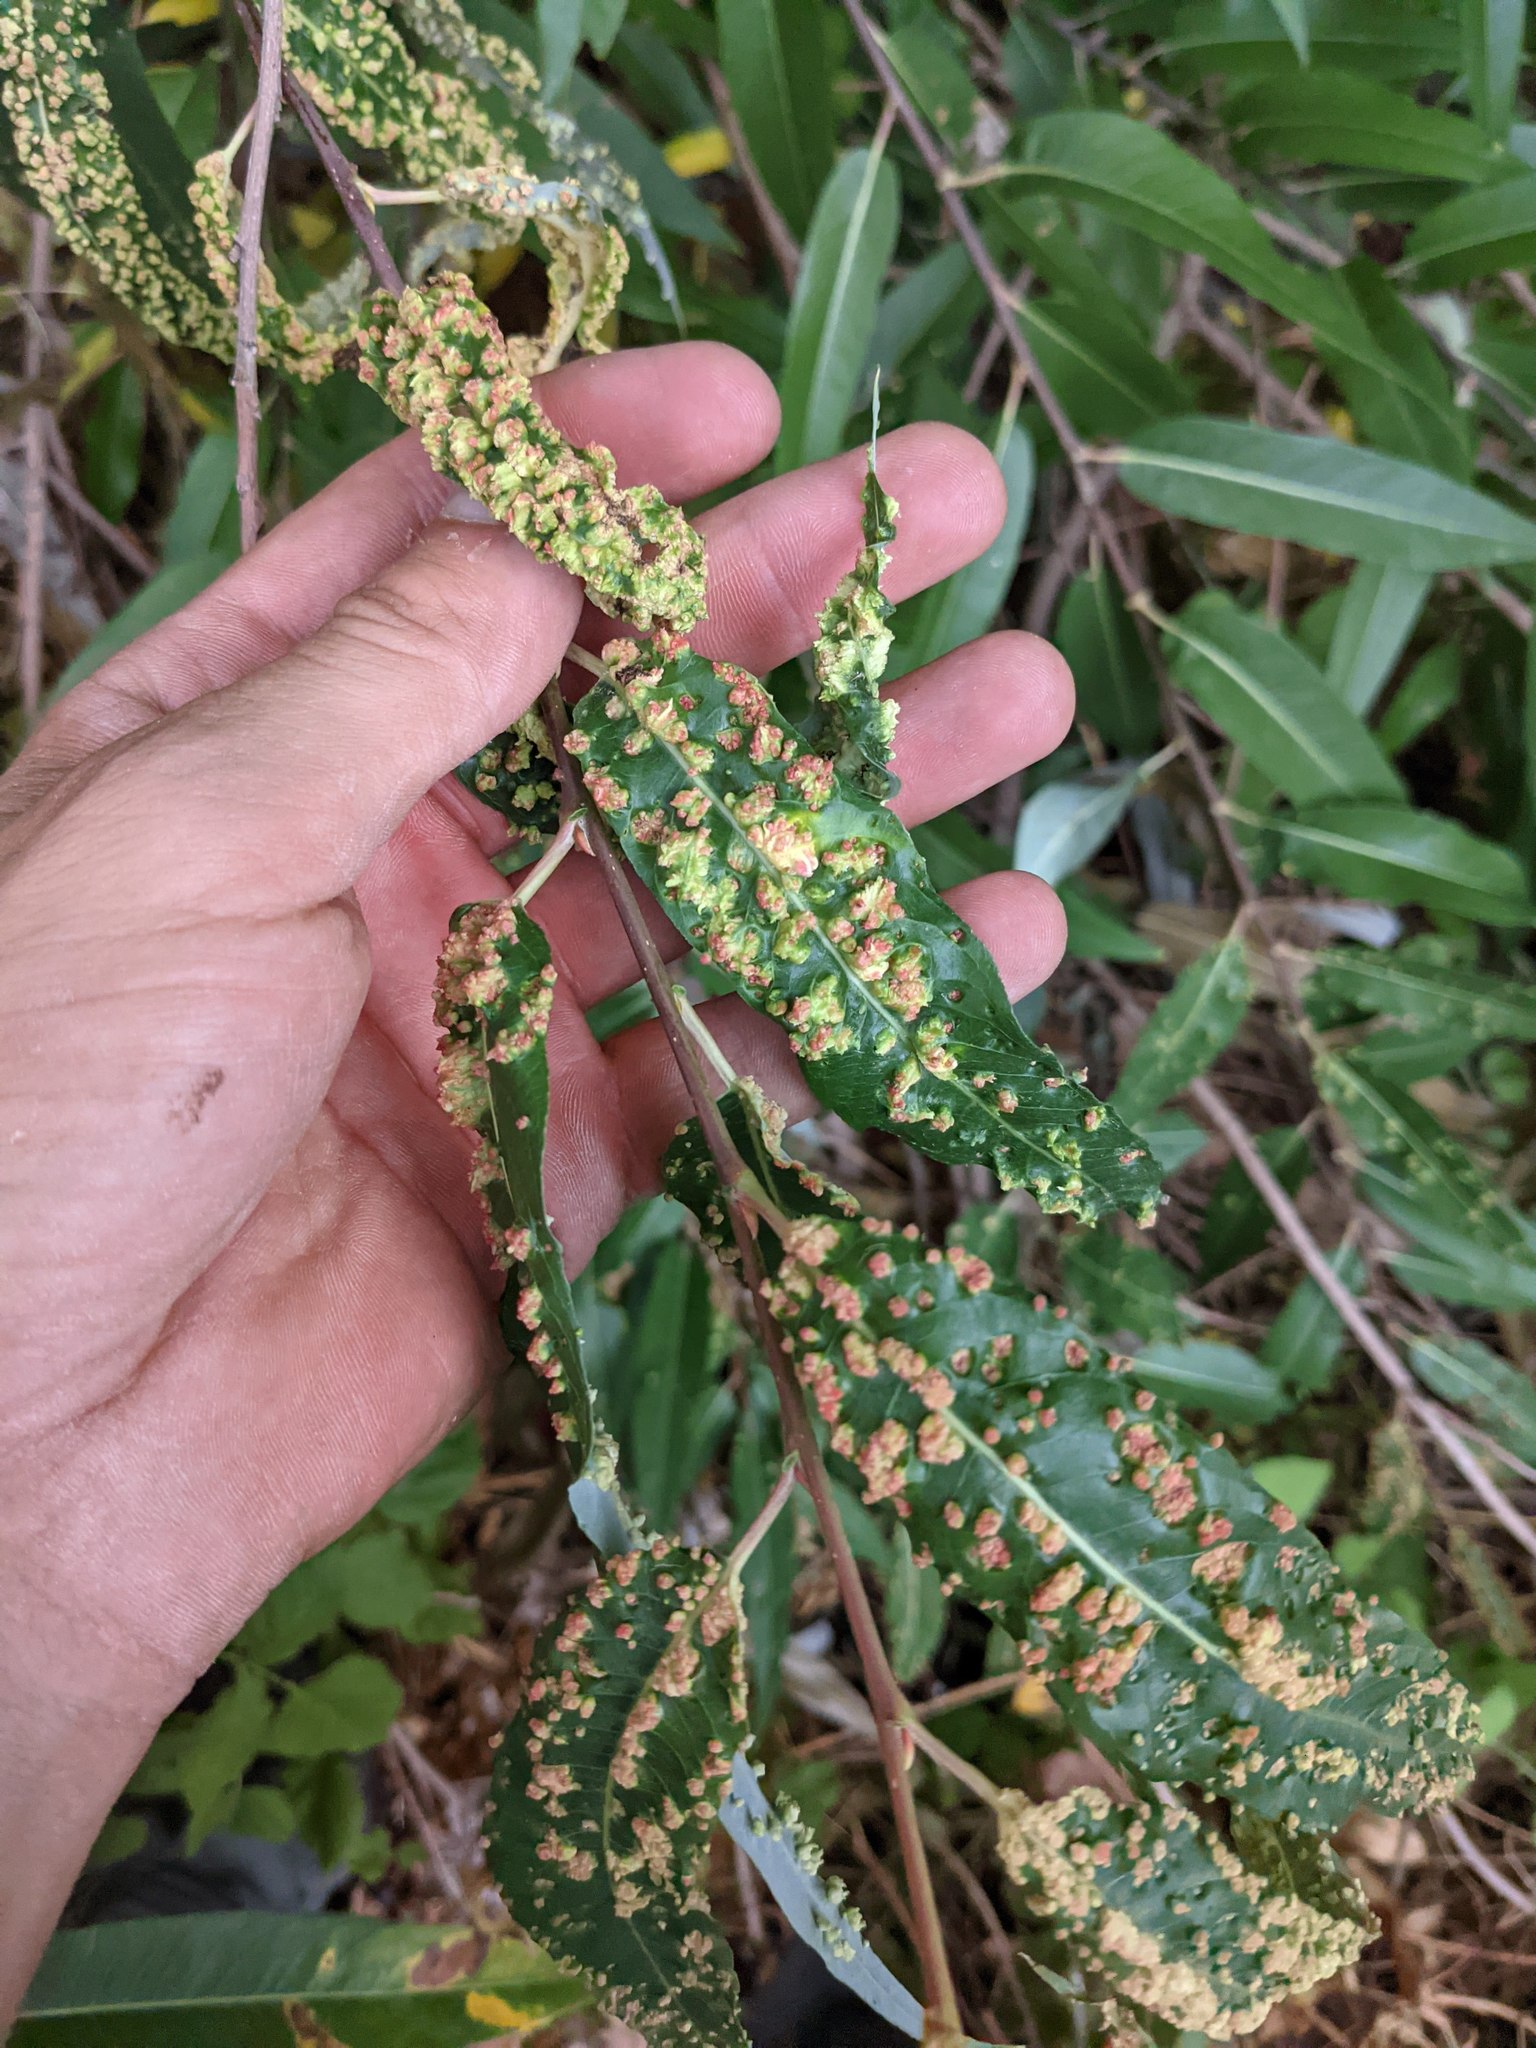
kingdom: Animalia
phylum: Arthropoda
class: Arachnida
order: Trombidiformes
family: Eriophyidae
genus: Aculus
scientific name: Aculus tetanothrix
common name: Willow bead gall mite
